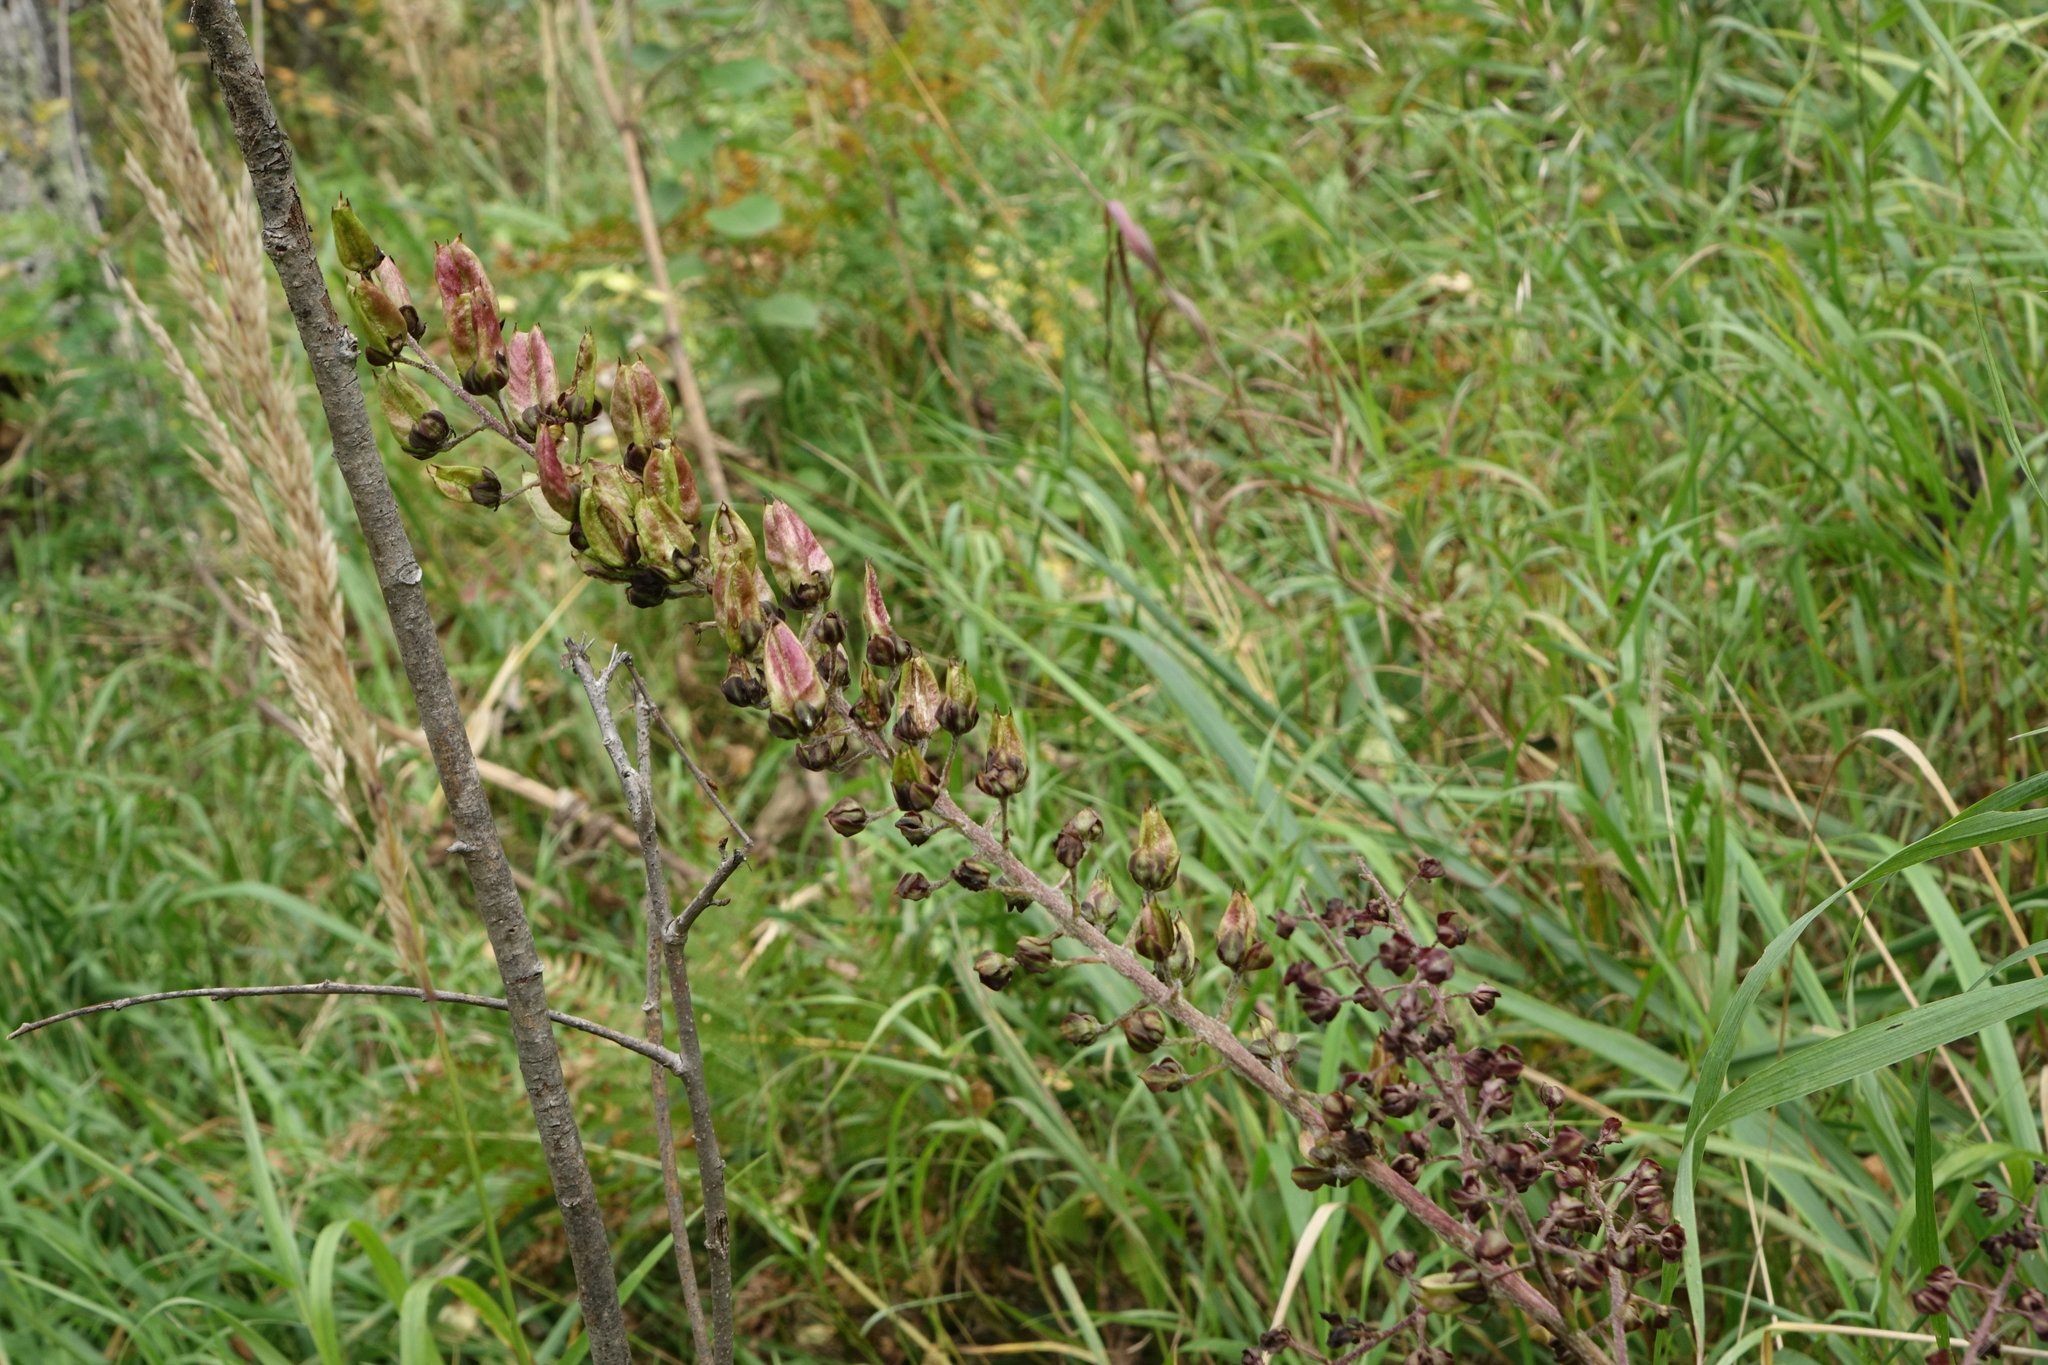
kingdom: Plantae
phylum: Tracheophyta
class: Liliopsida
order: Liliales
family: Melanthiaceae
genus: Veratrum
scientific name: Veratrum nigrum
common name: Black veratrum
